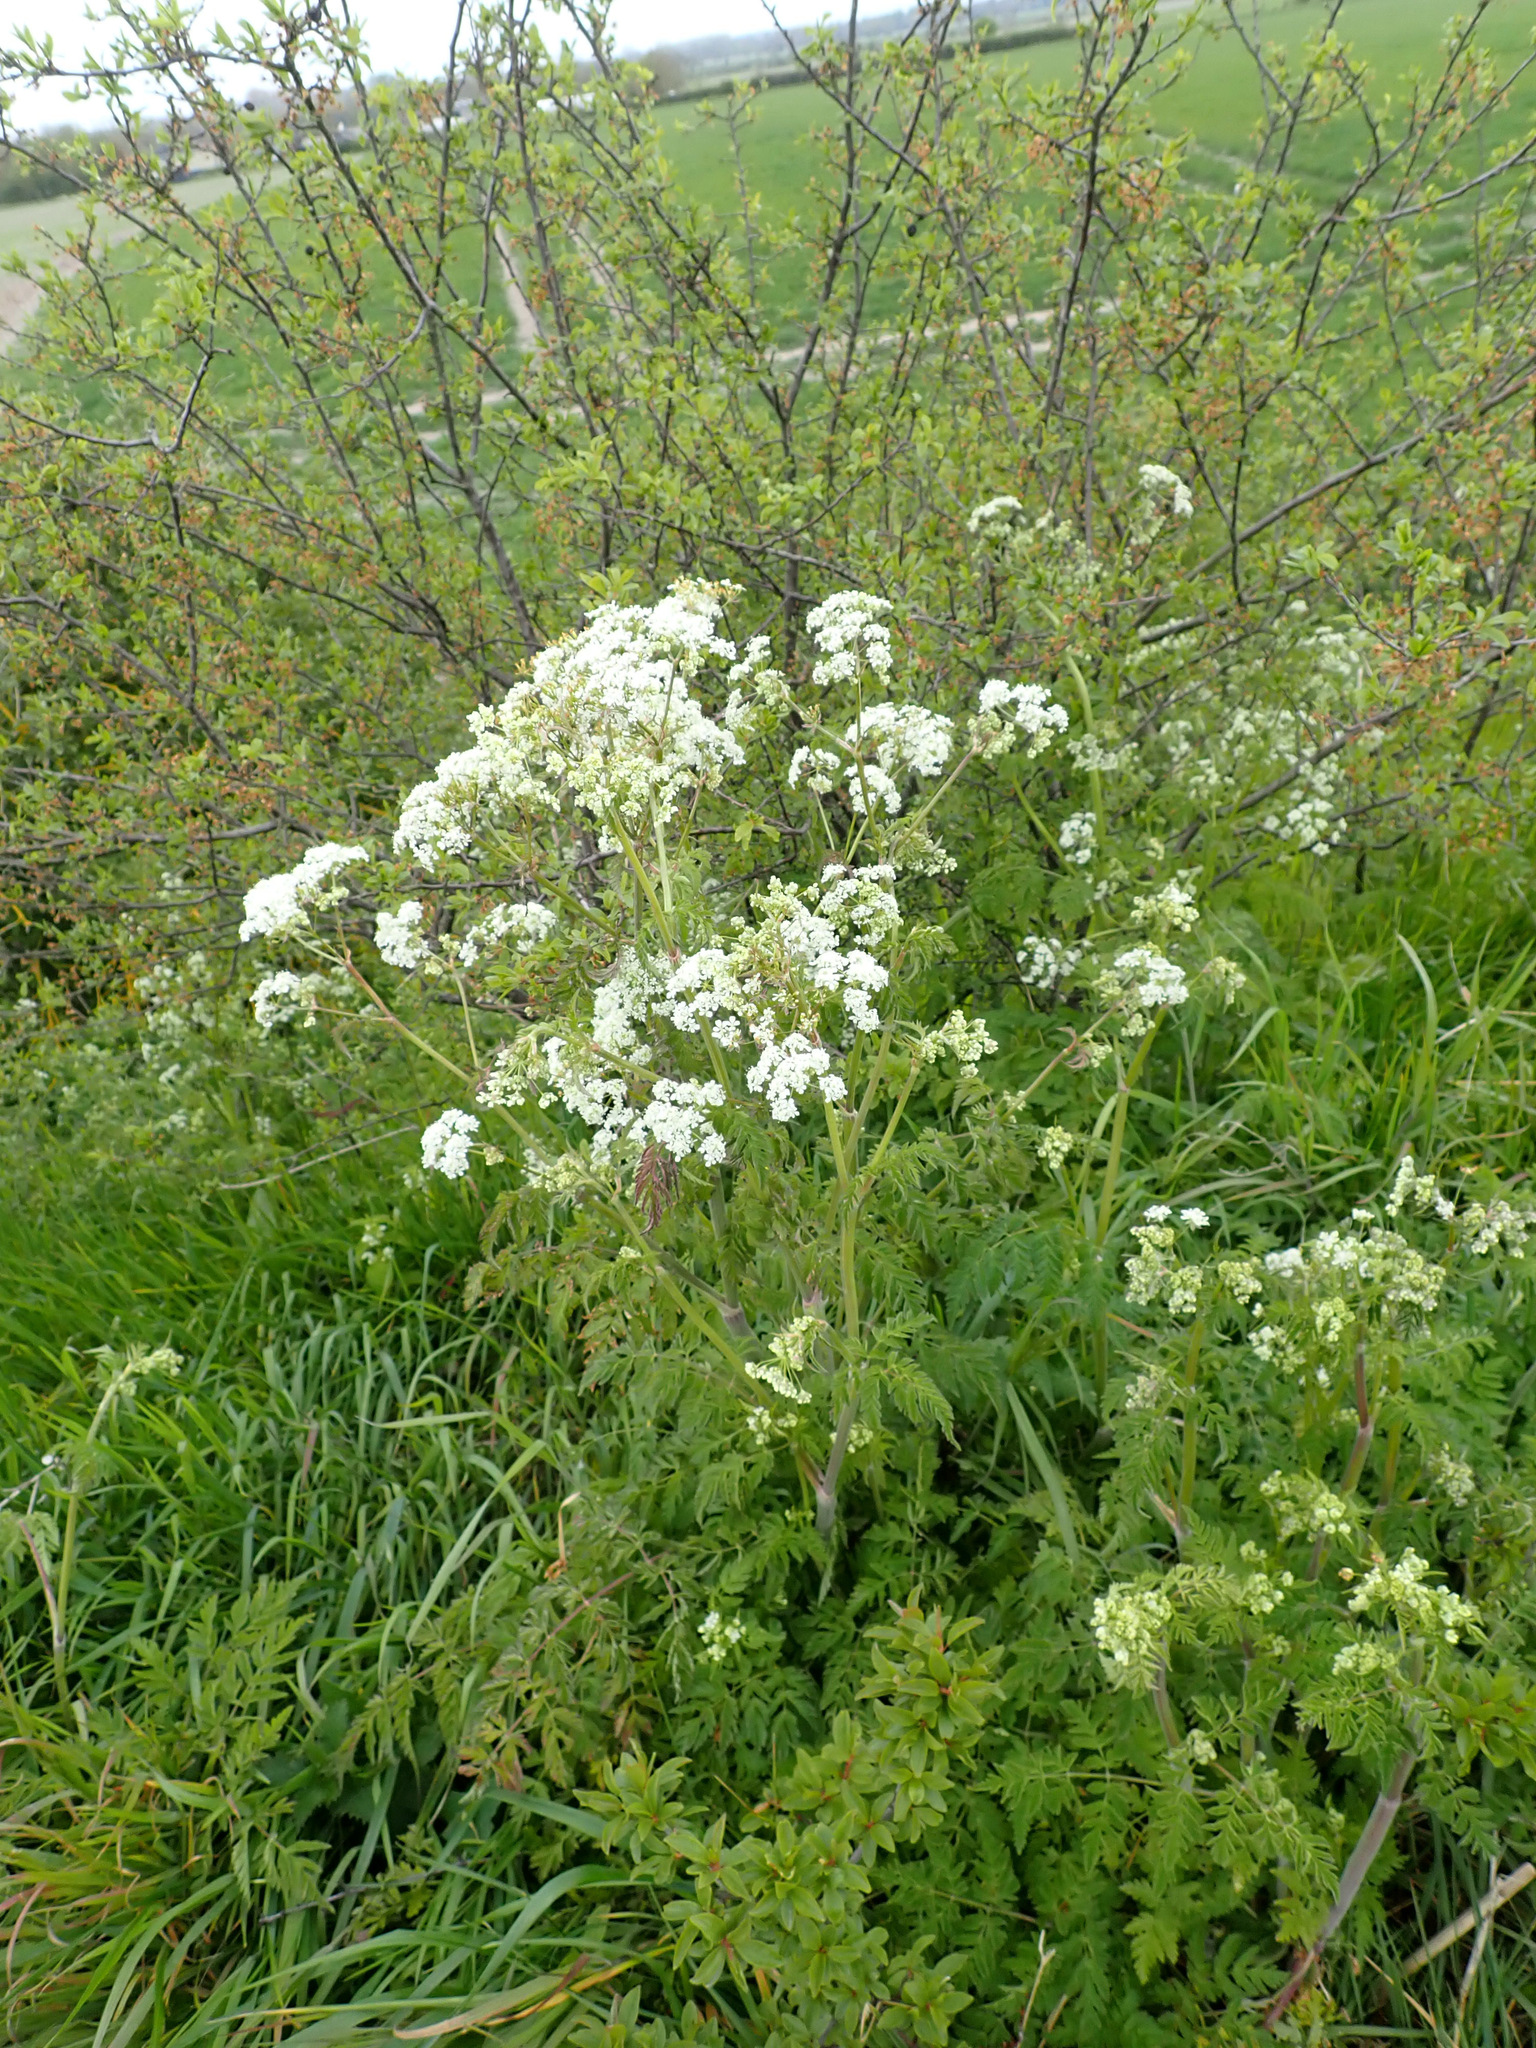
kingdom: Plantae
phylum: Tracheophyta
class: Magnoliopsida
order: Apiales
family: Apiaceae
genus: Anthriscus
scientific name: Anthriscus sylvestris
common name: Cow parsley
